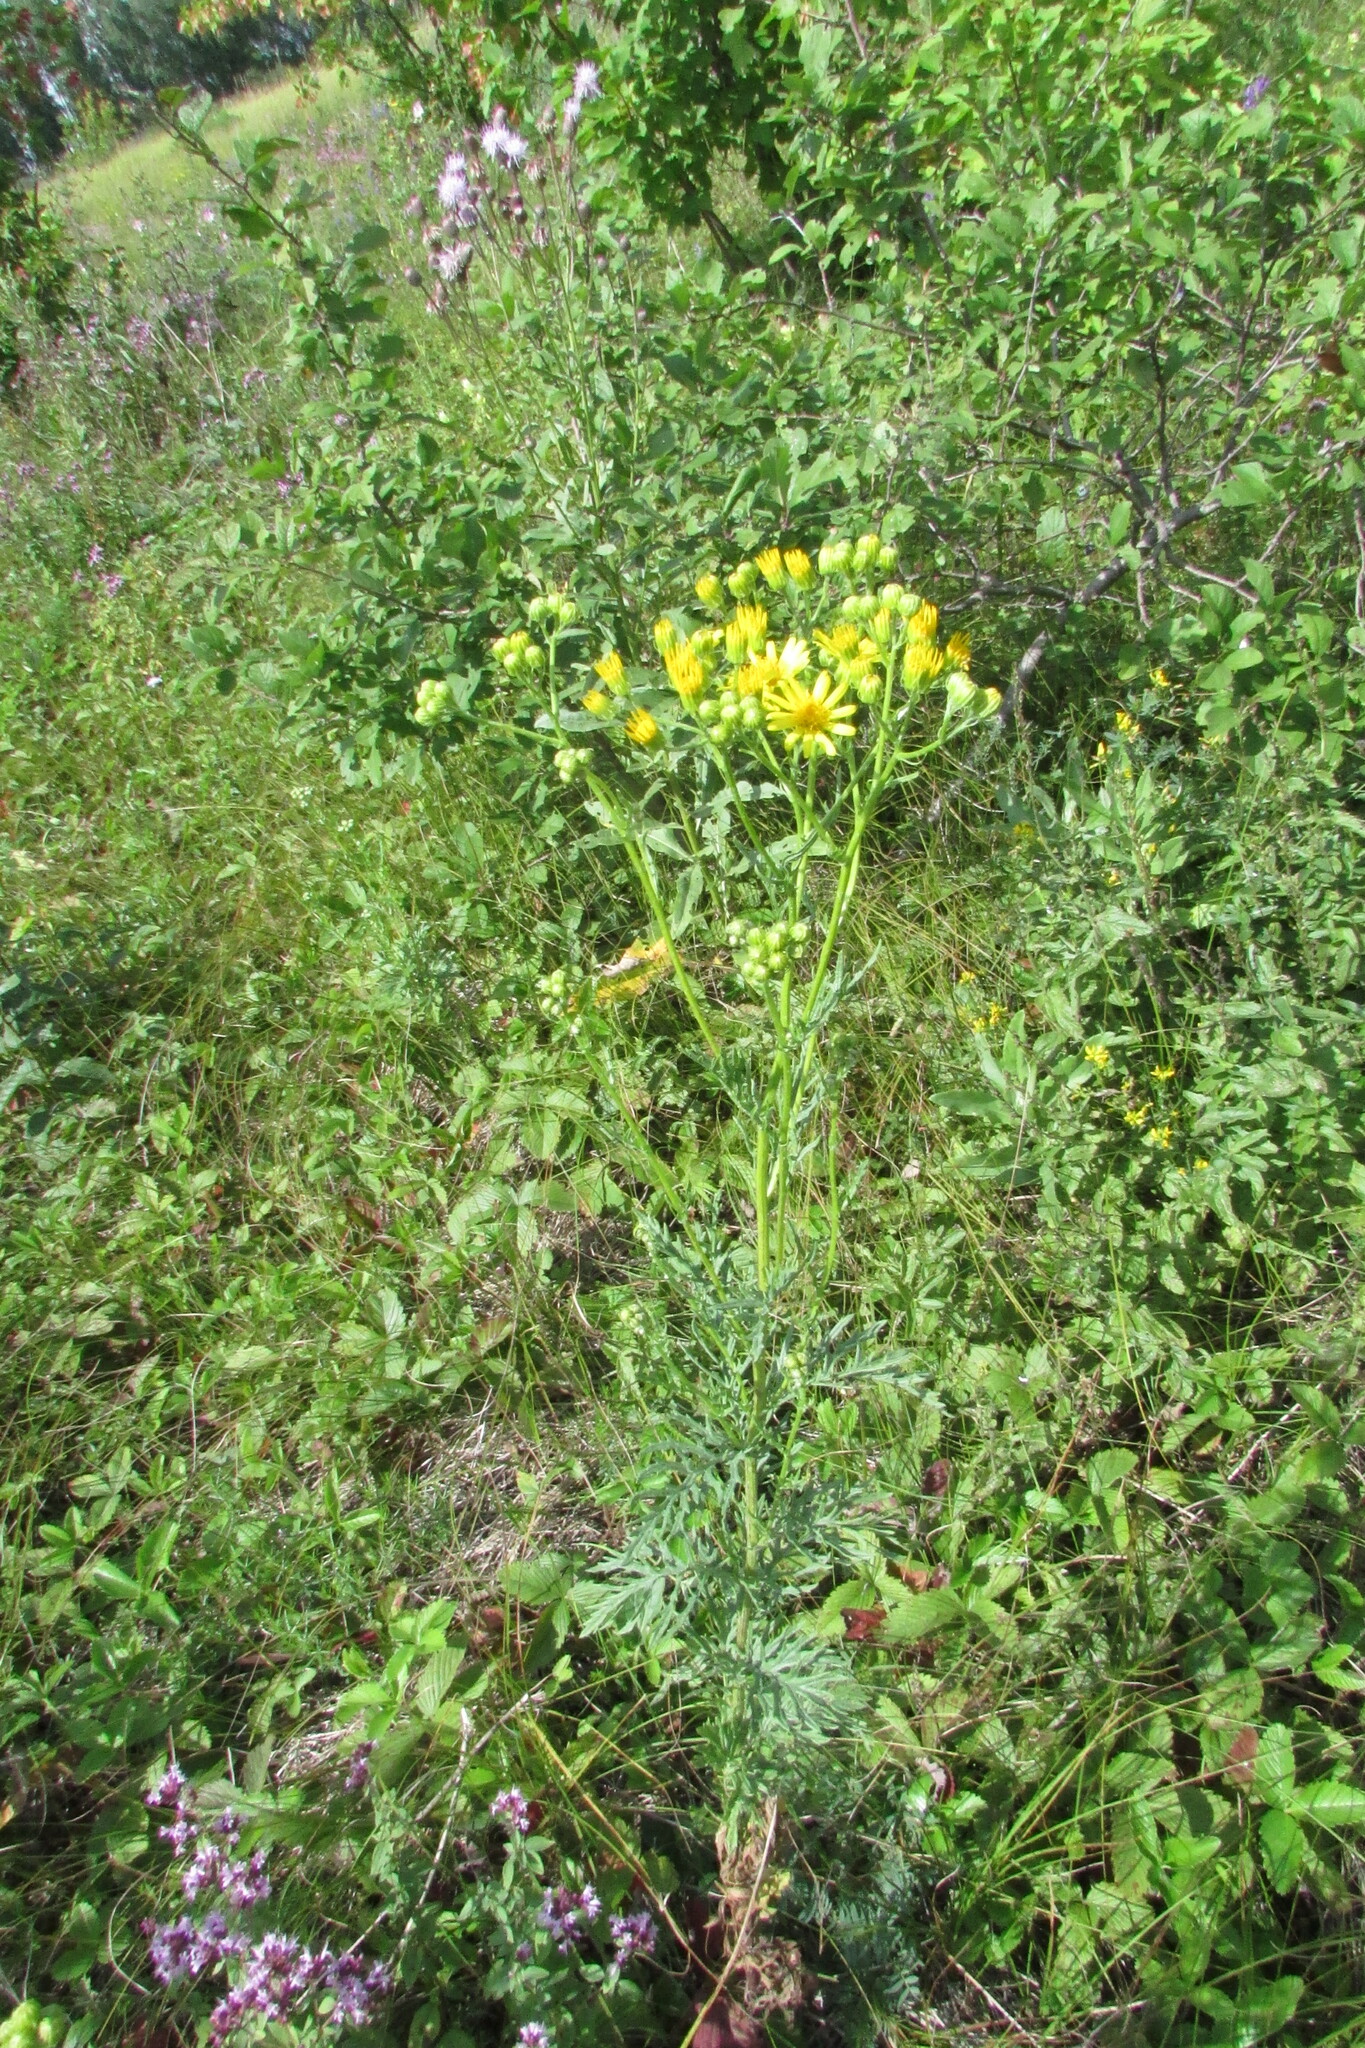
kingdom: Plantae
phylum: Tracheophyta
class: Magnoliopsida
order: Asterales
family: Asteraceae
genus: Jacobaea
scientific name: Jacobaea erucifolia
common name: Hoary ragwort
